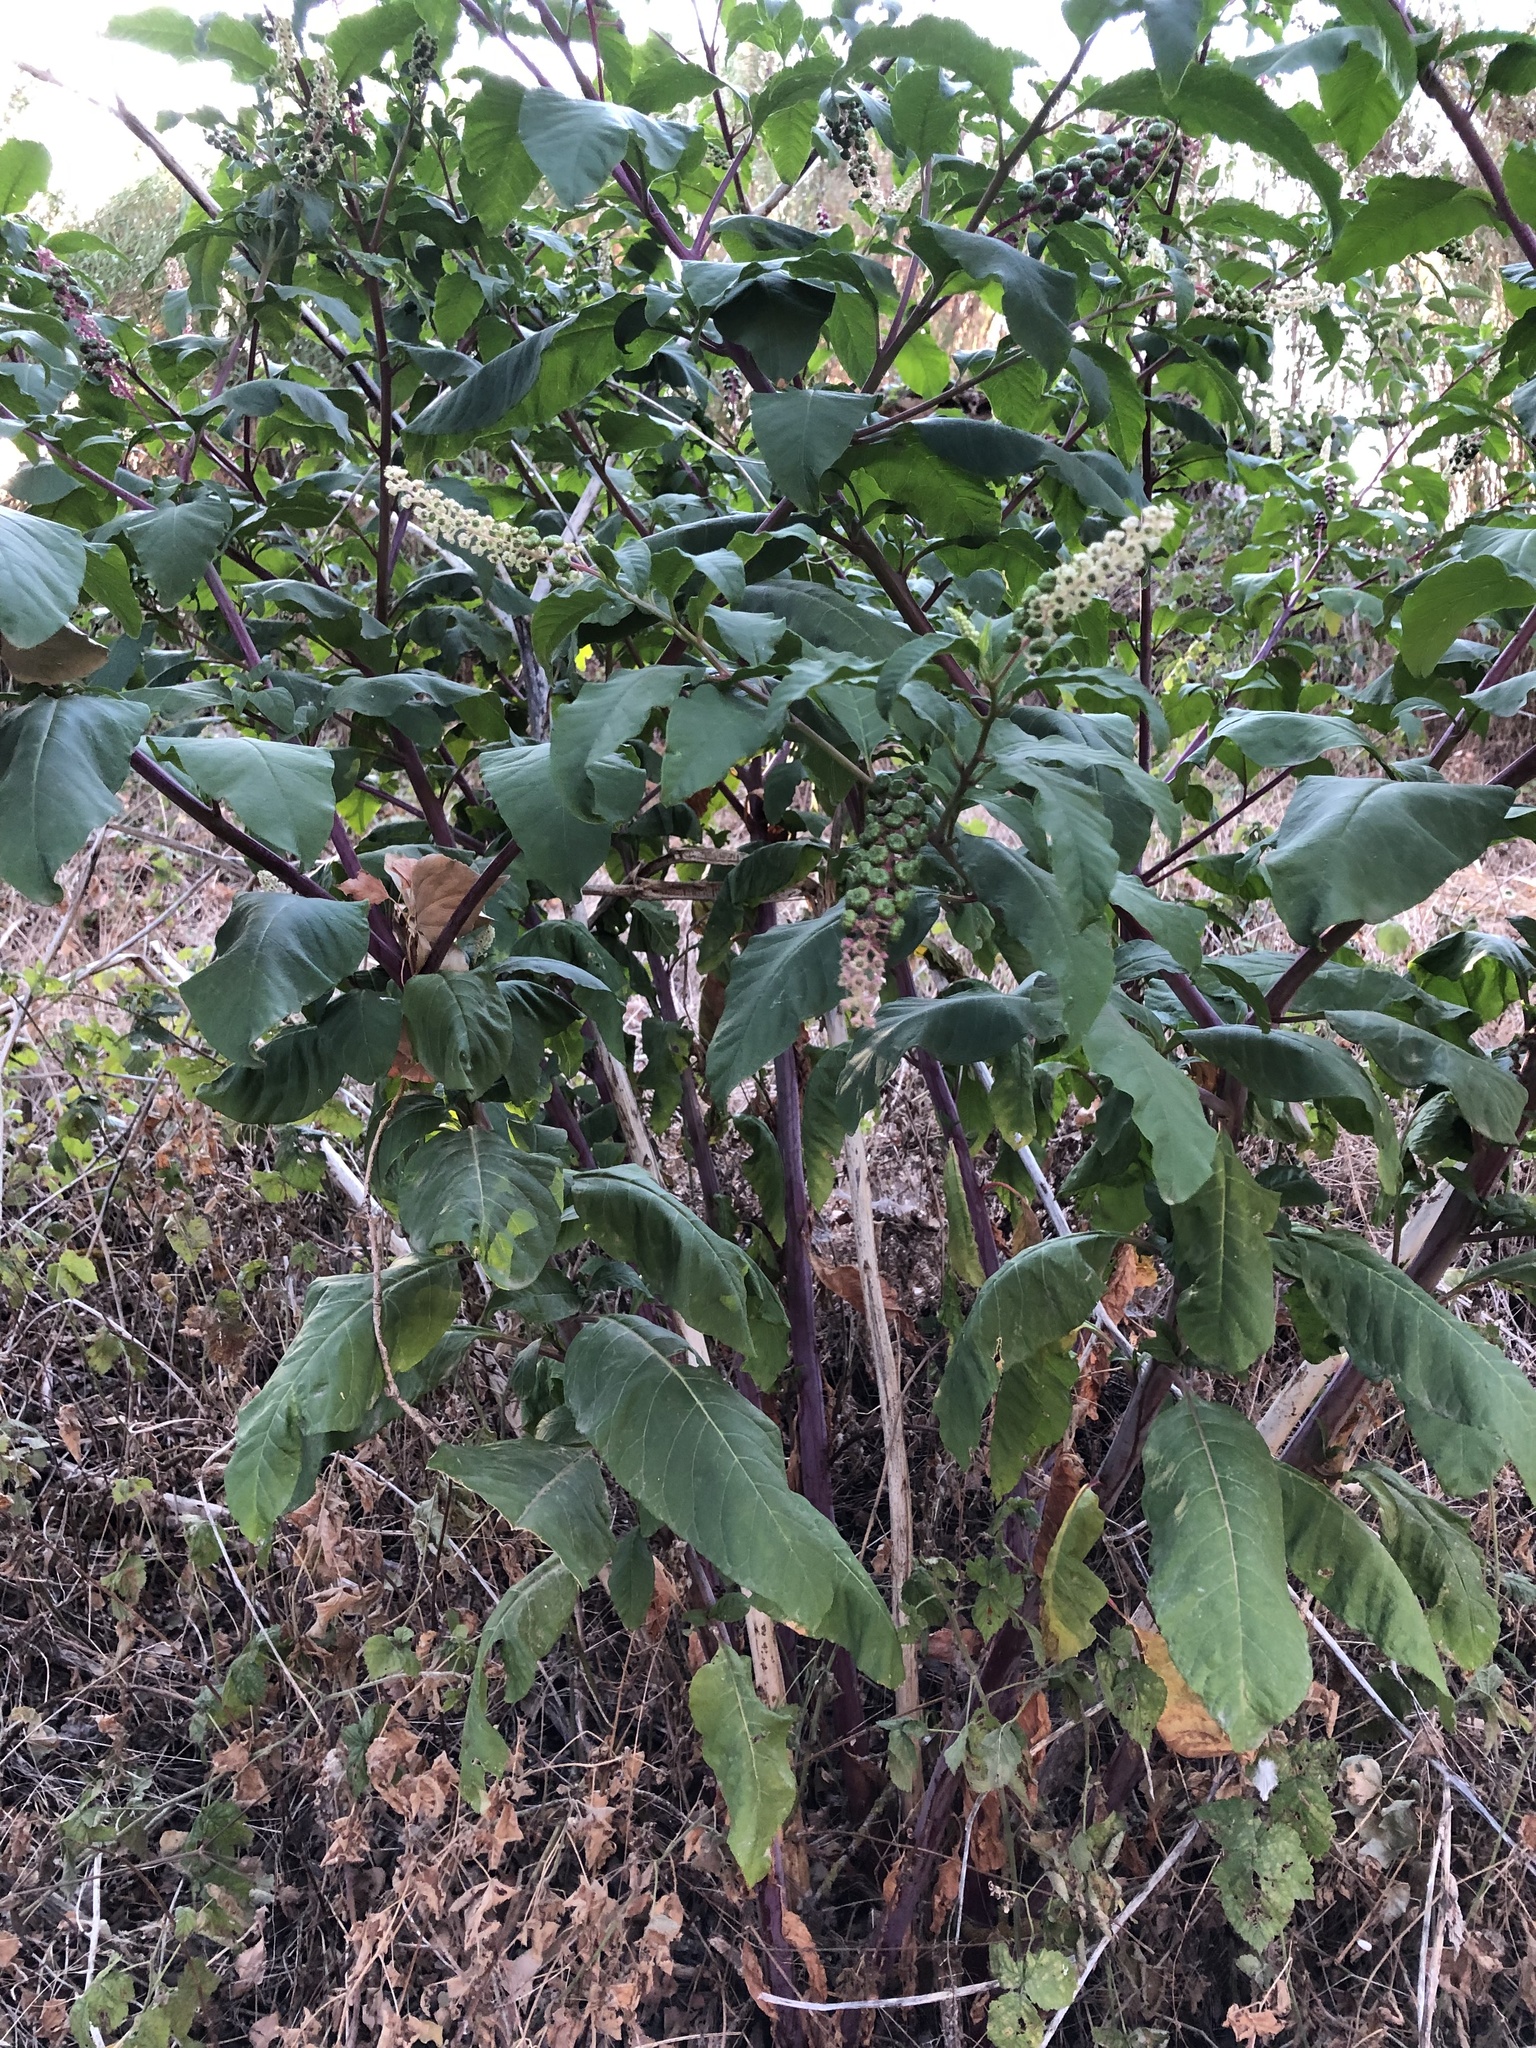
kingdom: Plantae
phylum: Tracheophyta
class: Magnoliopsida
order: Caryophyllales
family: Phytolaccaceae
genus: Phytolacca
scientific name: Phytolacca americana
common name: American pokeweed
